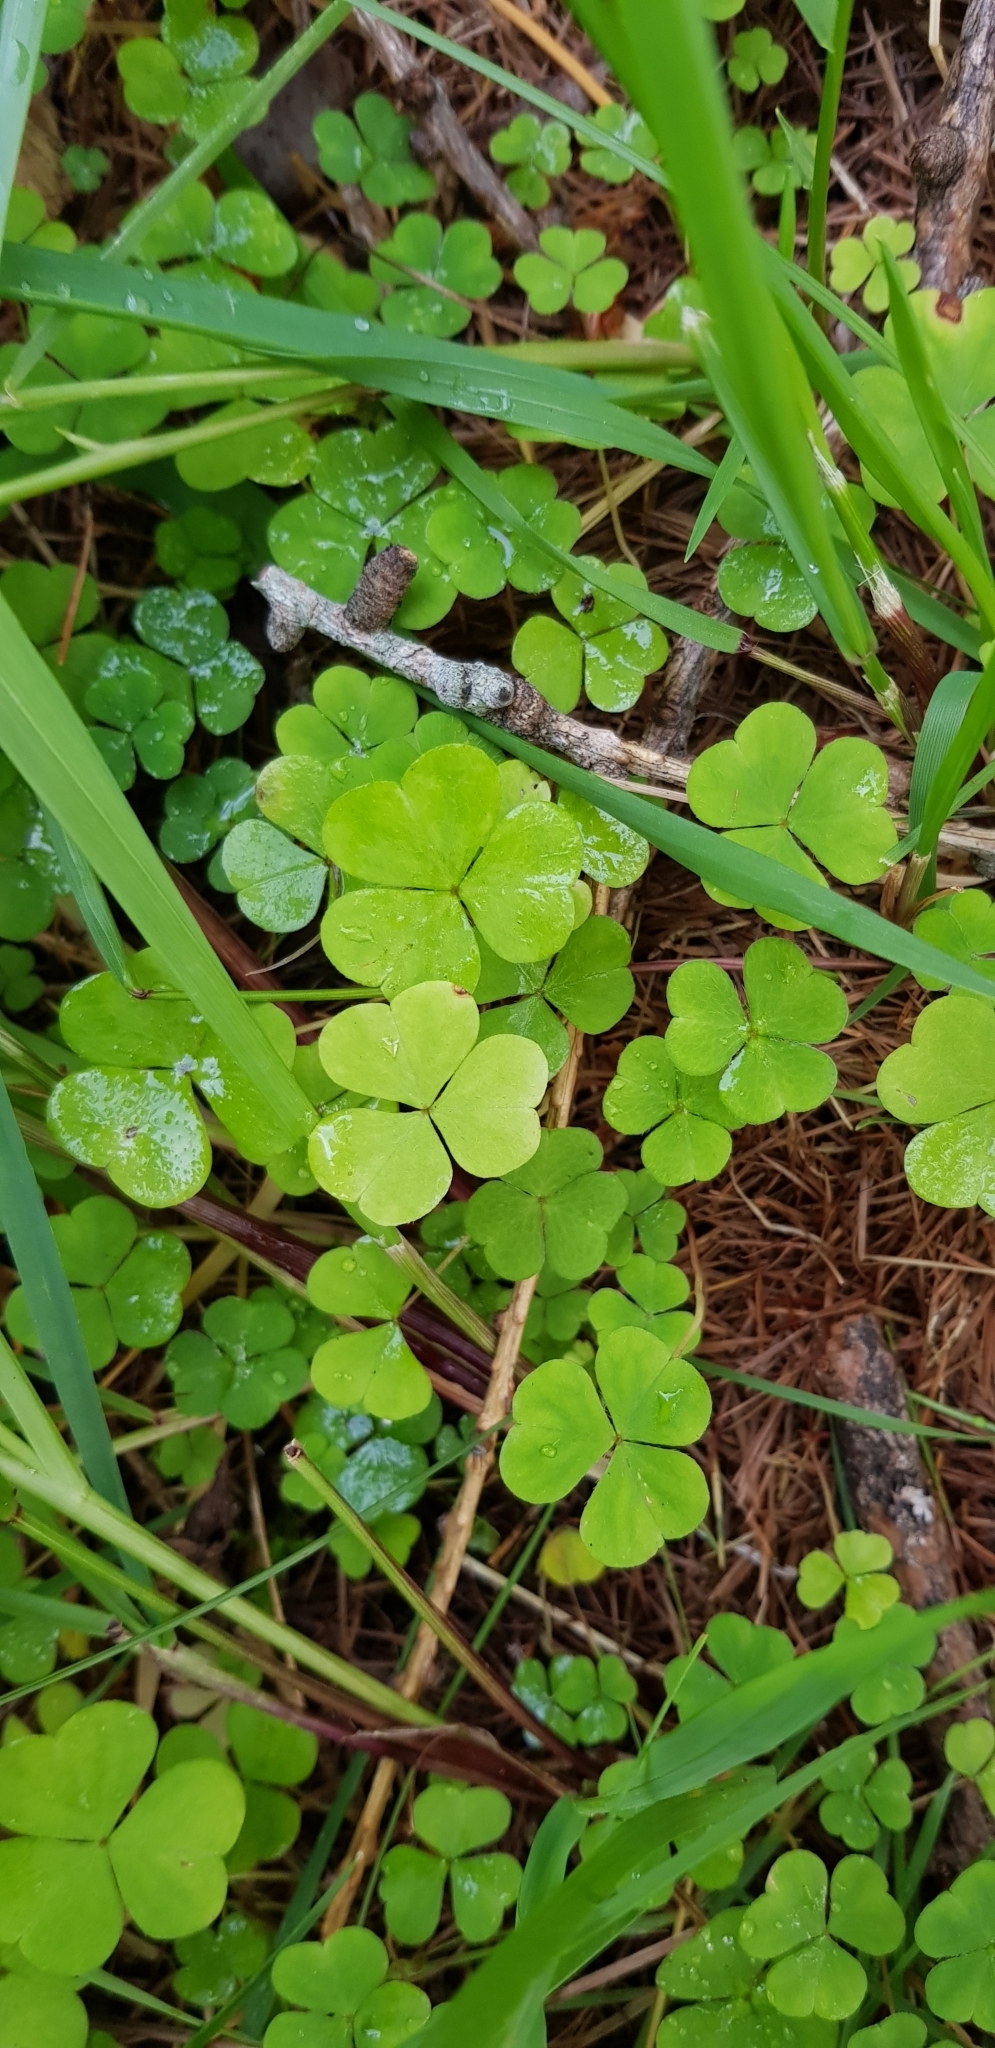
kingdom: Plantae
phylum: Tracheophyta
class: Magnoliopsida
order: Oxalidales
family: Oxalidaceae
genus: Oxalis
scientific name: Oxalis acetosella
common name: Wood-sorrel
